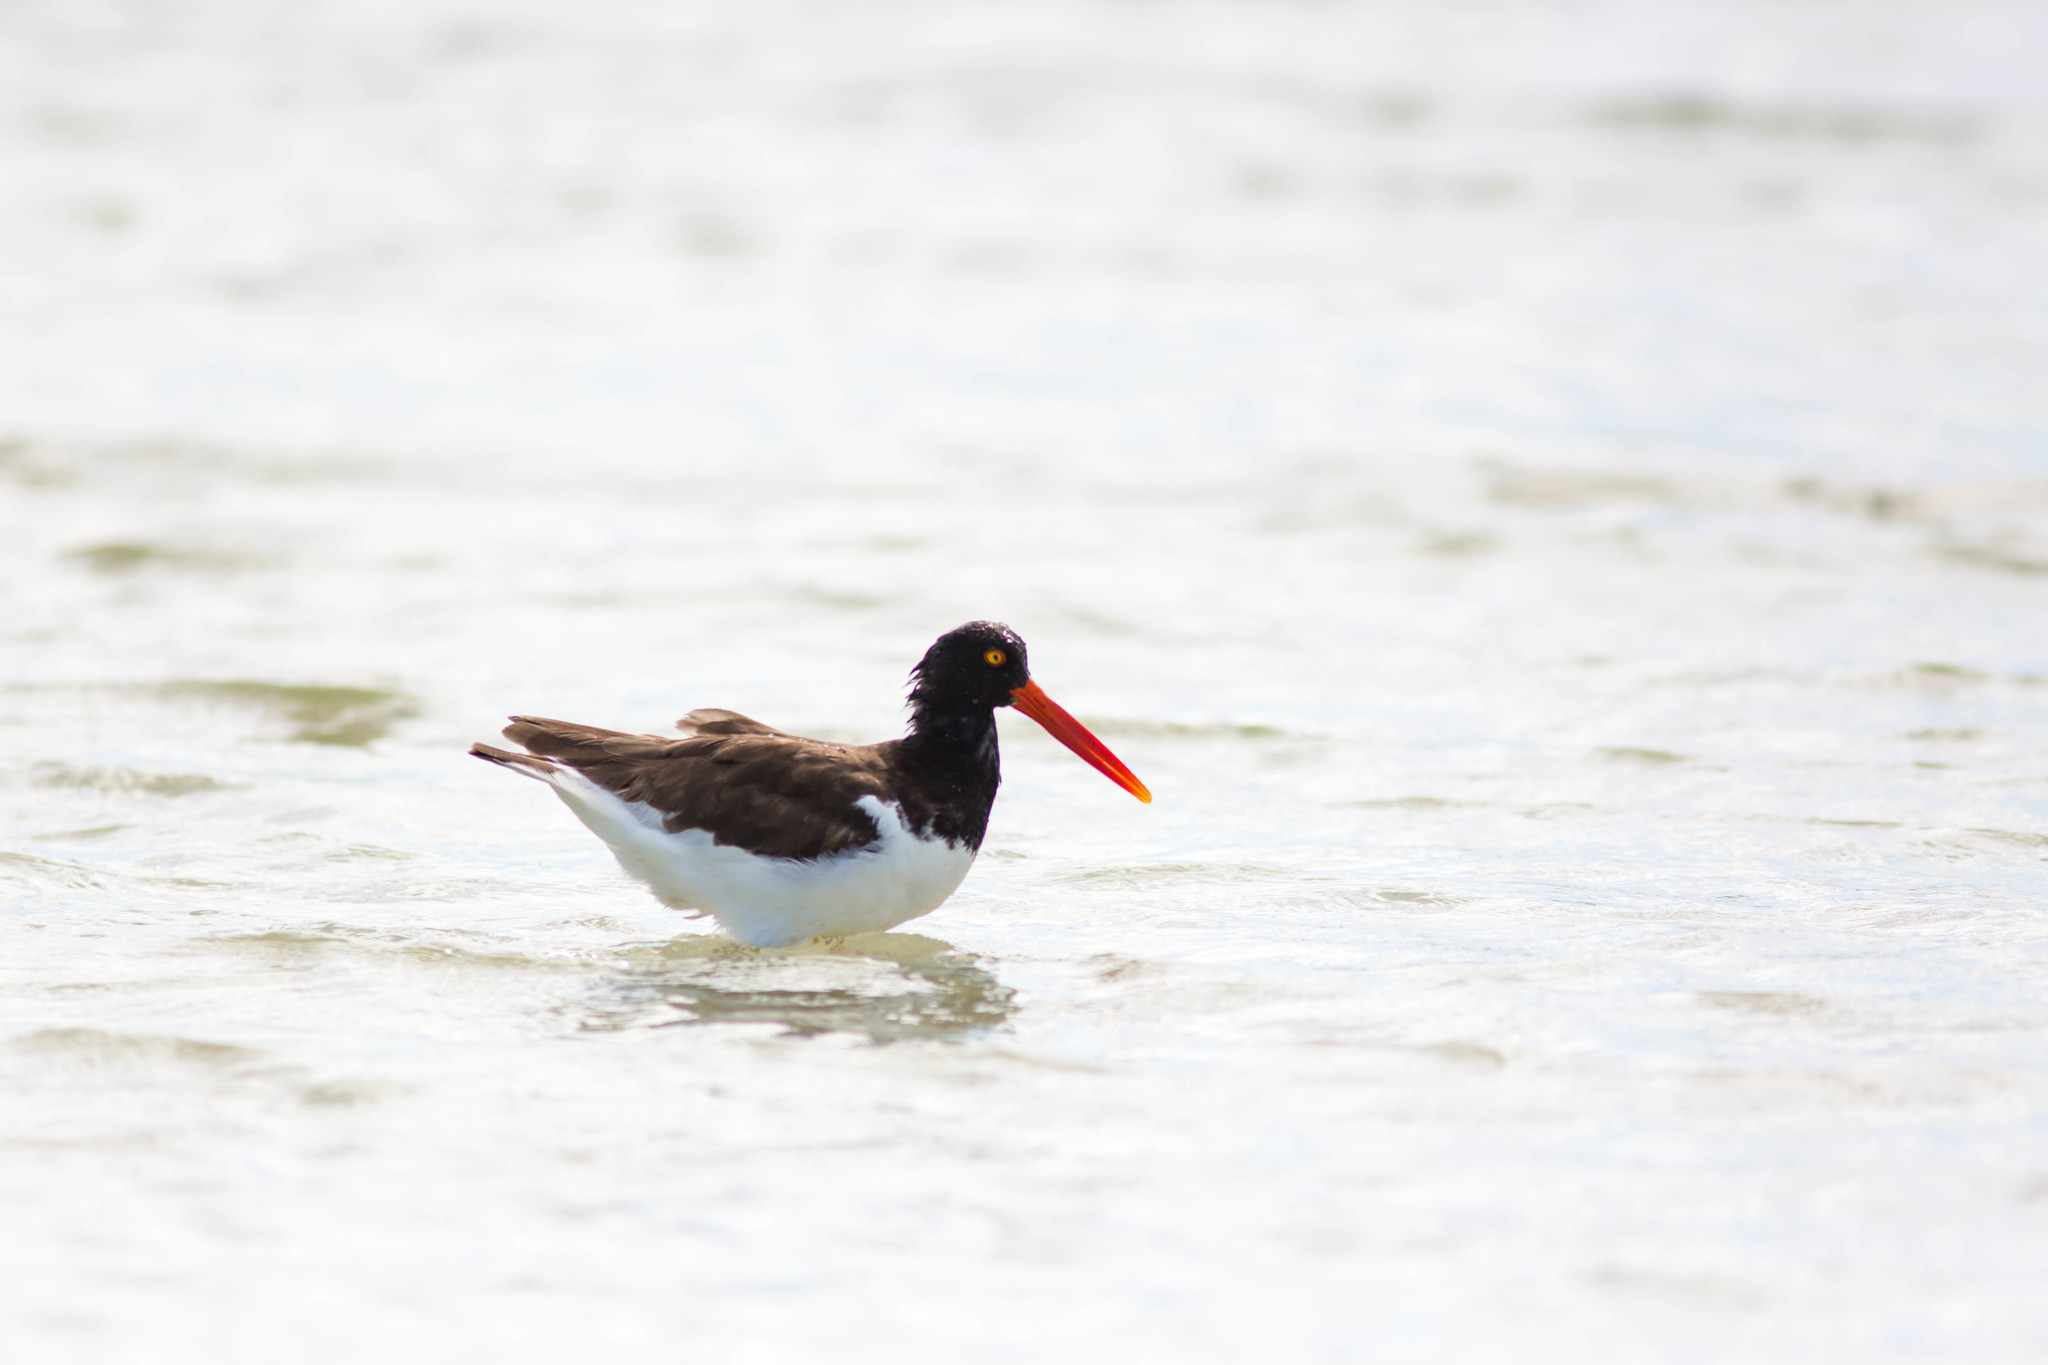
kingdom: Animalia
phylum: Chordata
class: Aves
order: Charadriiformes
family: Haematopodidae
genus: Haematopus
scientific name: Haematopus palliatus
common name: American oystercatcher
